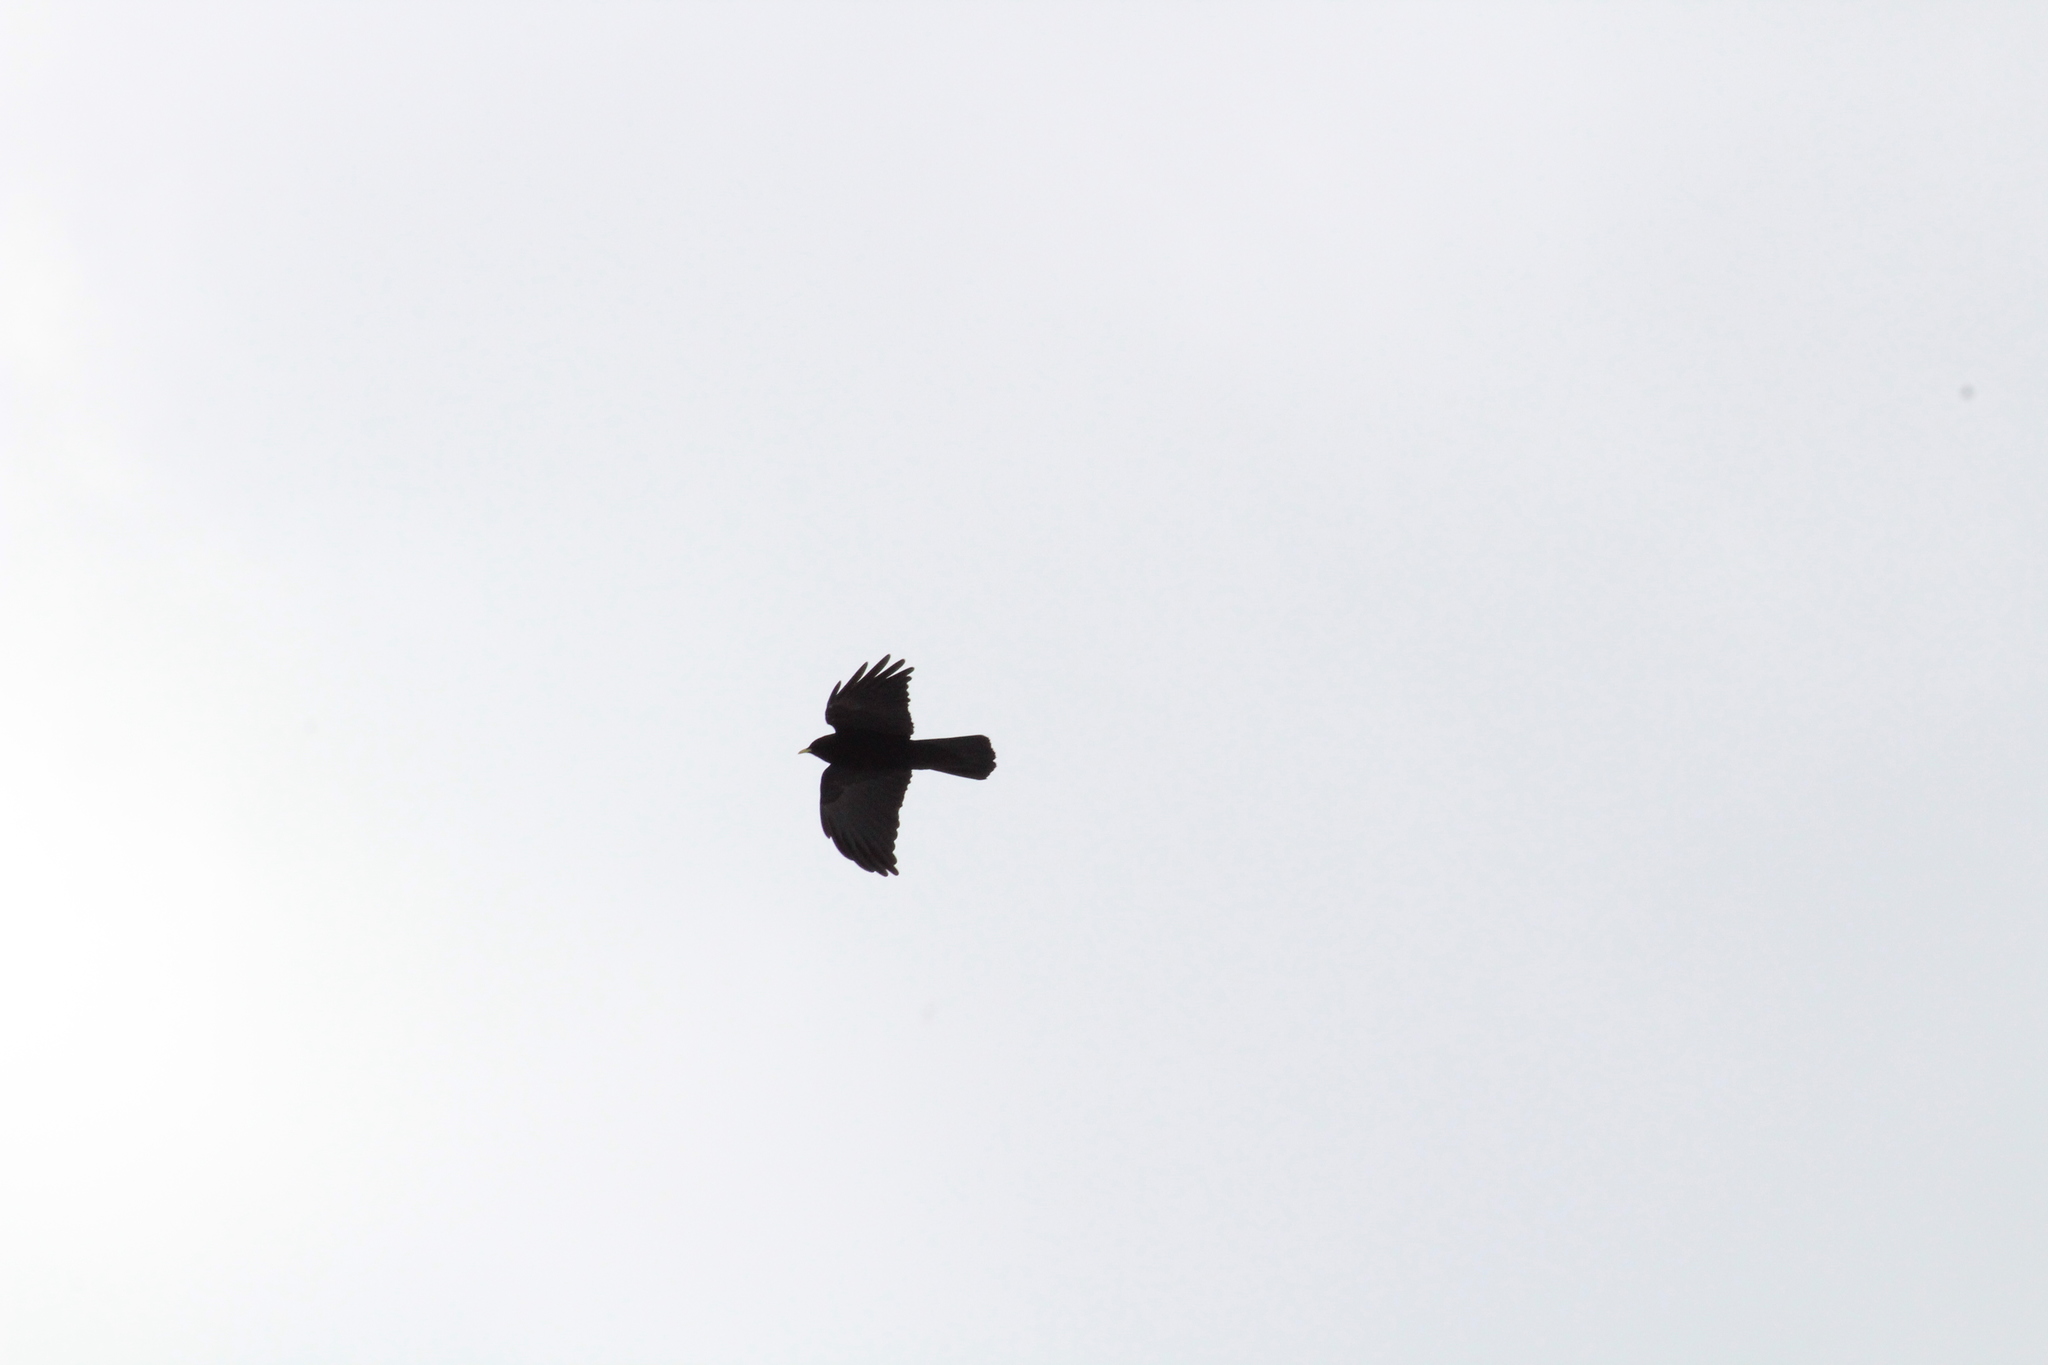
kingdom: Animalia
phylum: Chordata
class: Aves
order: Passeriformes
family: Corvidae
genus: Pyrrhocorax
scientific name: Pyrrhocorax graculus
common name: Alpine chough
